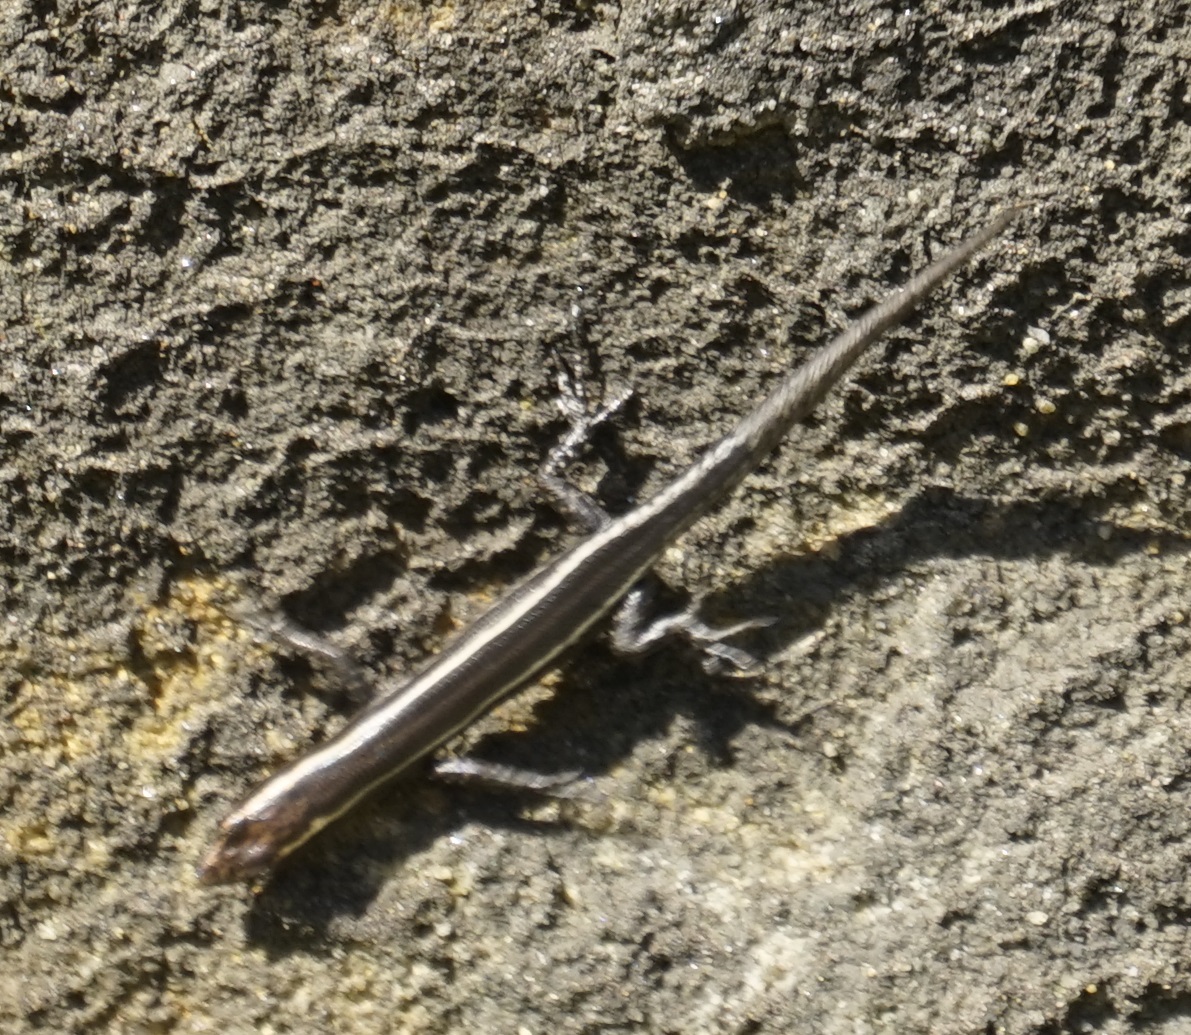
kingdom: Animalia
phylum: Chordata
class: Squamata
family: Scincidae
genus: Cryptoblepharus
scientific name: Cryptoblepharus pulcher
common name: Elegant snake-eyed skink
